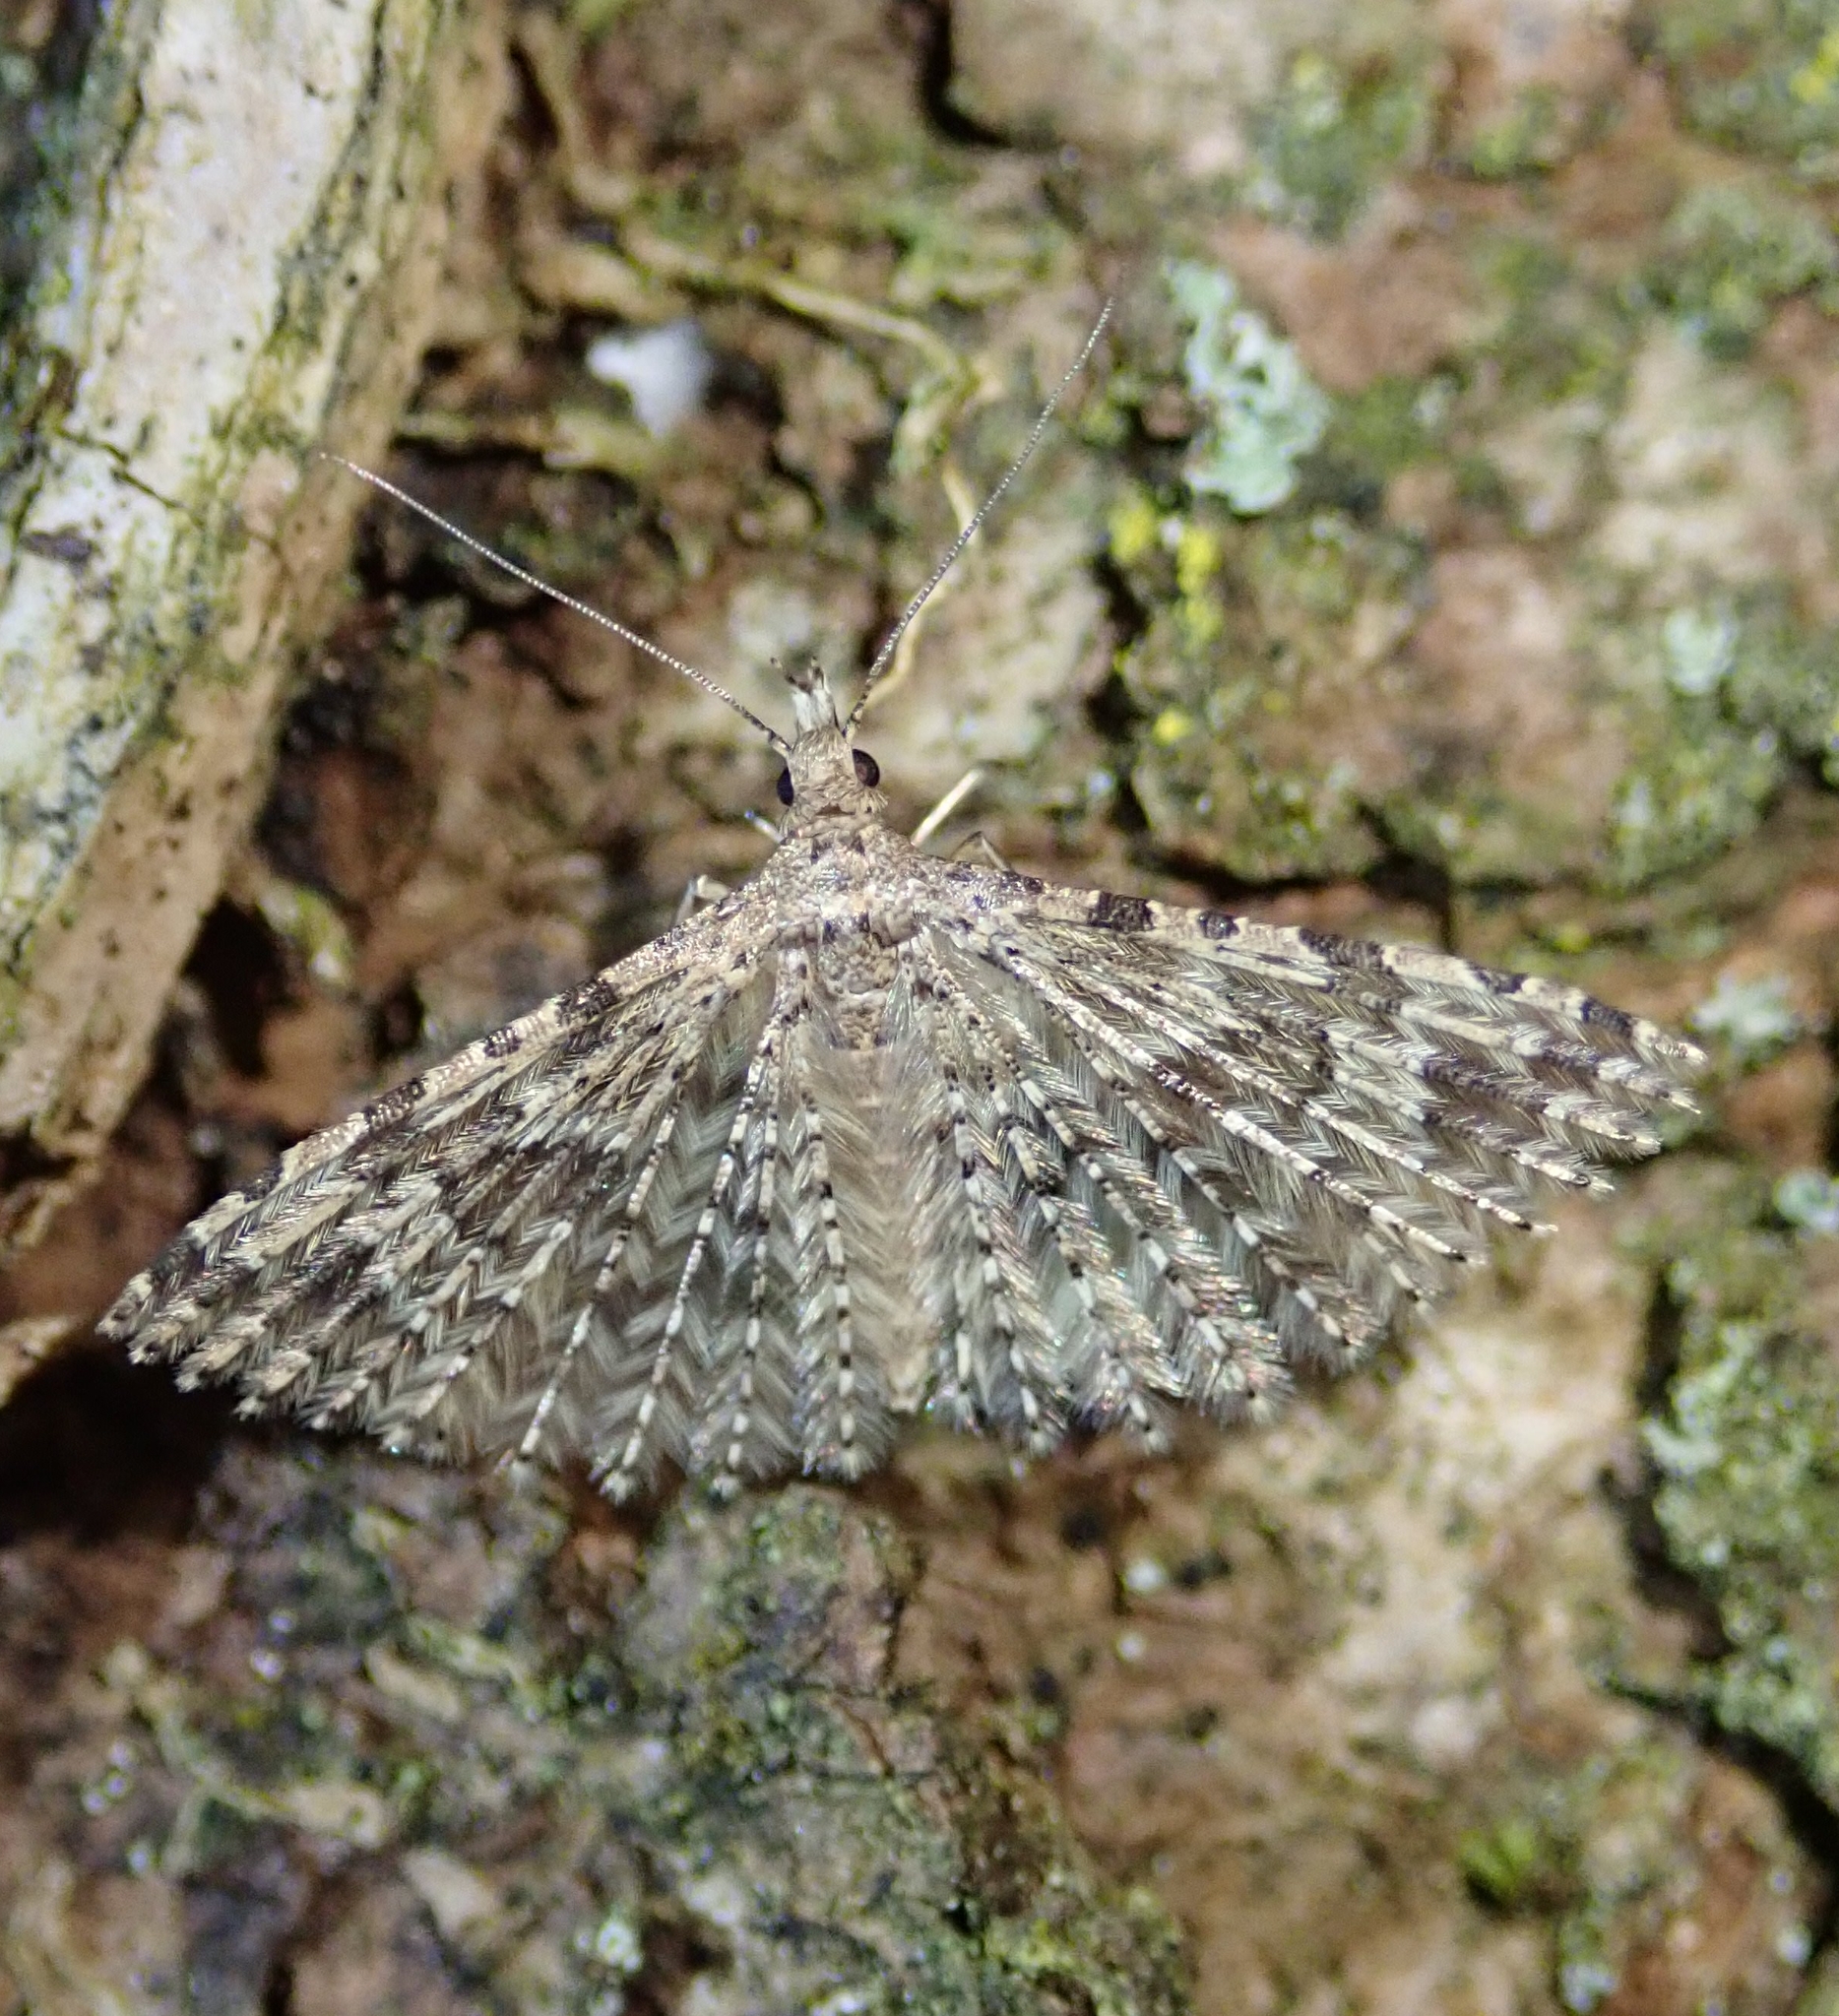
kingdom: Animalia
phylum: Arthropoda
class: Insecta
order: Lepidoptera
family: Alucitidae
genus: Alucita
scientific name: Alucita hexadactyla
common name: Twenty-plume moth
